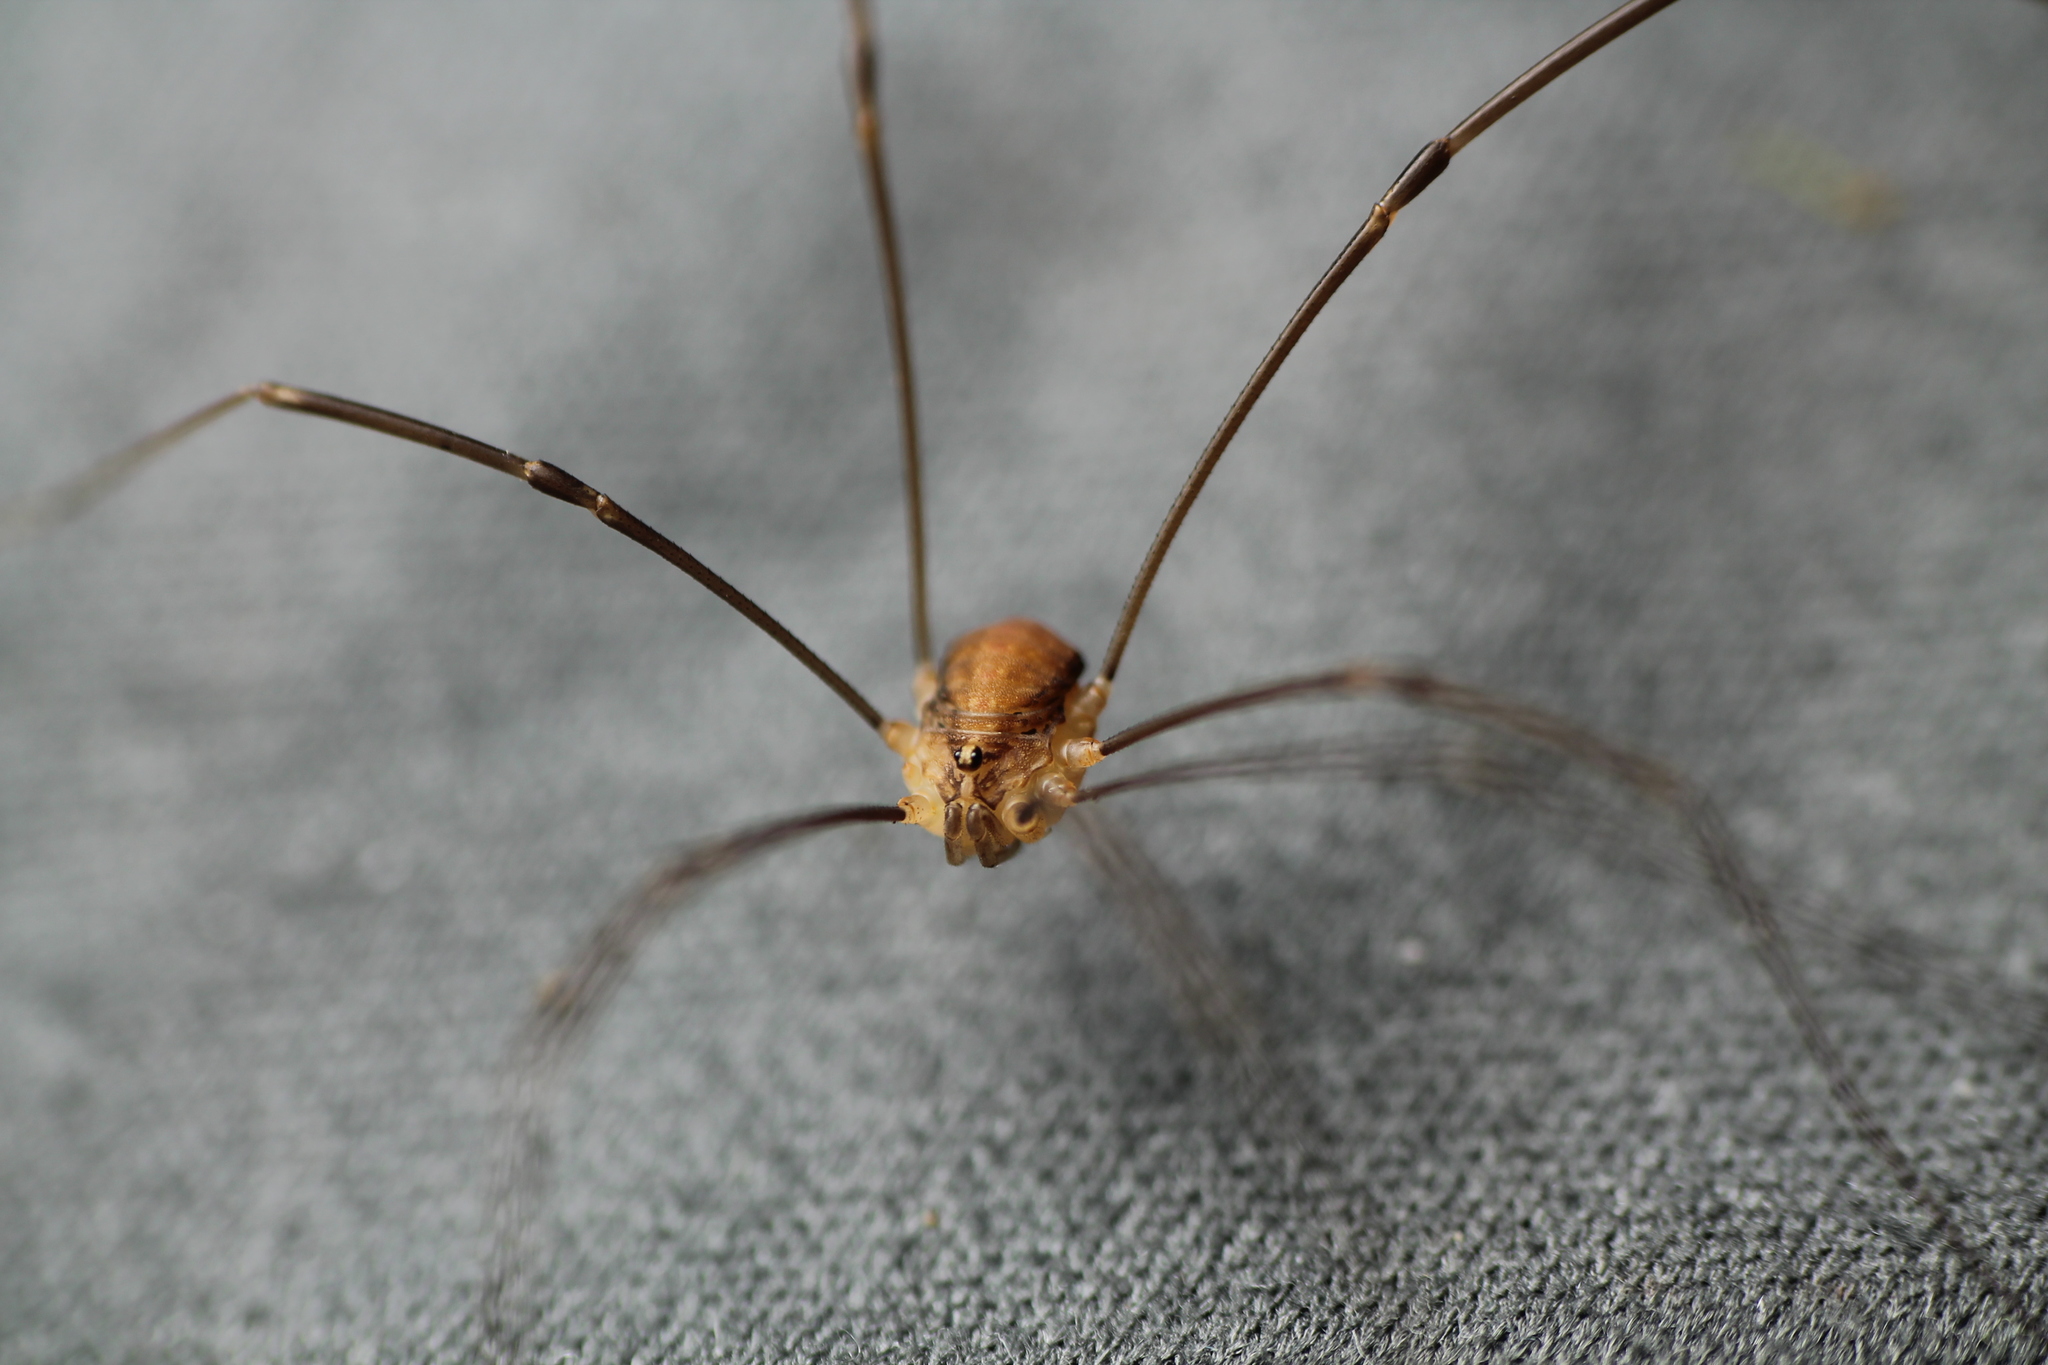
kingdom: Animalia
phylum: Arthropoda
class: Arachnida
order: Opiliones
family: Sclerosomatidae
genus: Nelima
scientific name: Nelima doriae
